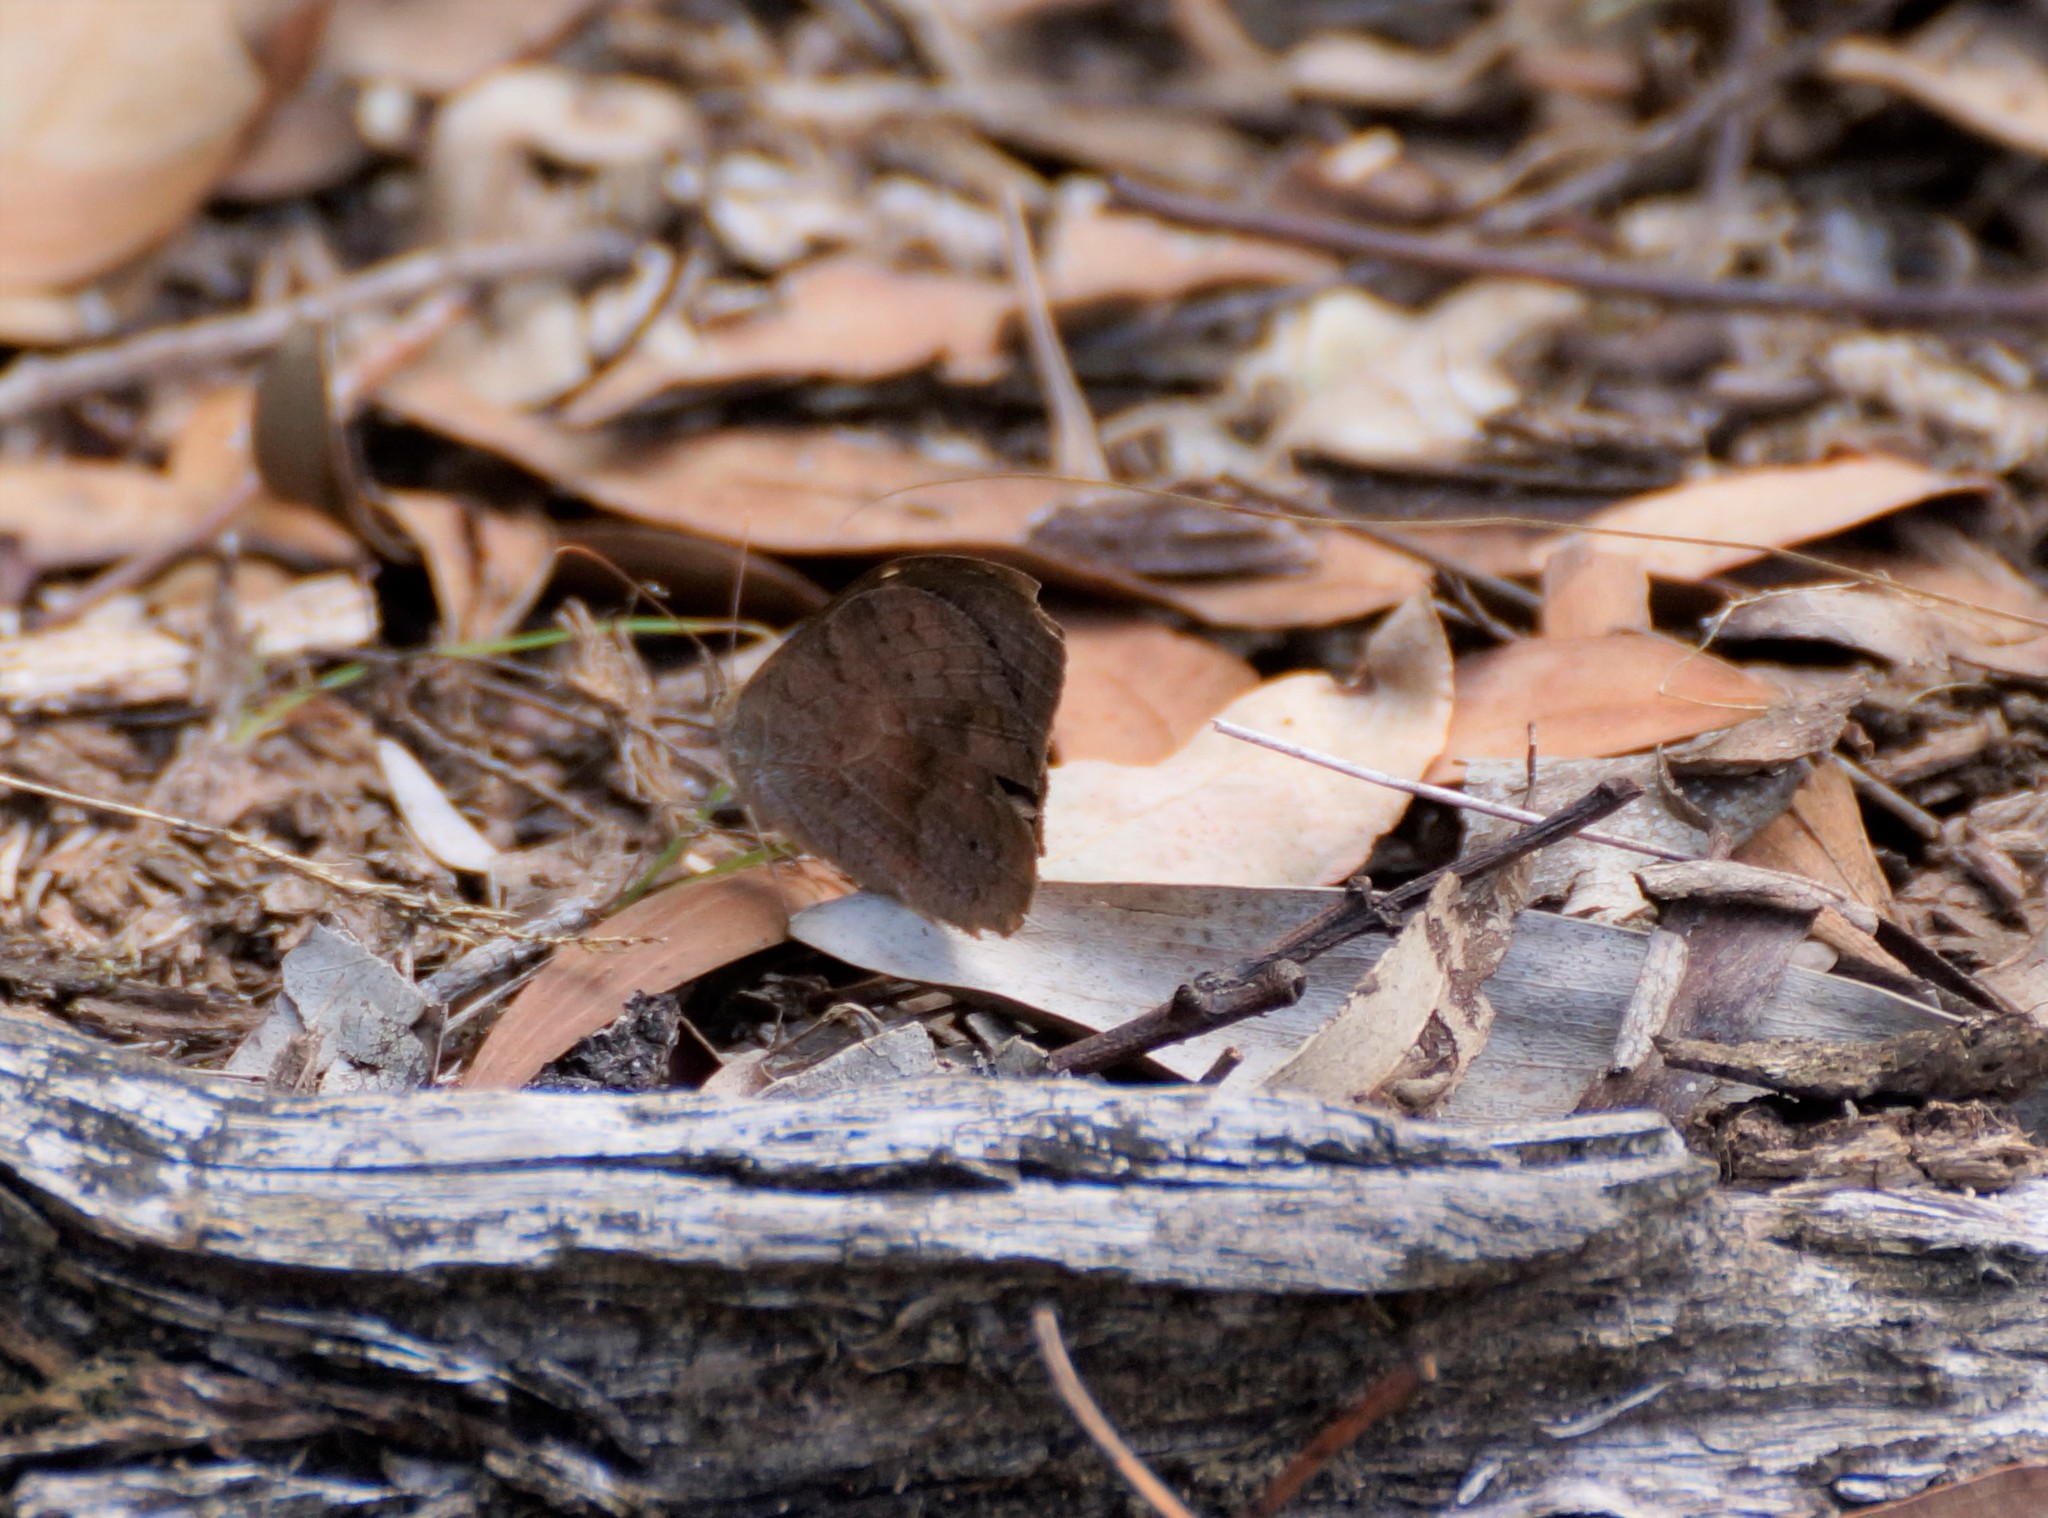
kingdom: Animalia
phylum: Arthropoda
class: Insecta
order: Lepidoptera
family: Nymphalidae
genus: Heteronympha
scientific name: Heteronympha merope
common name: Common brown
